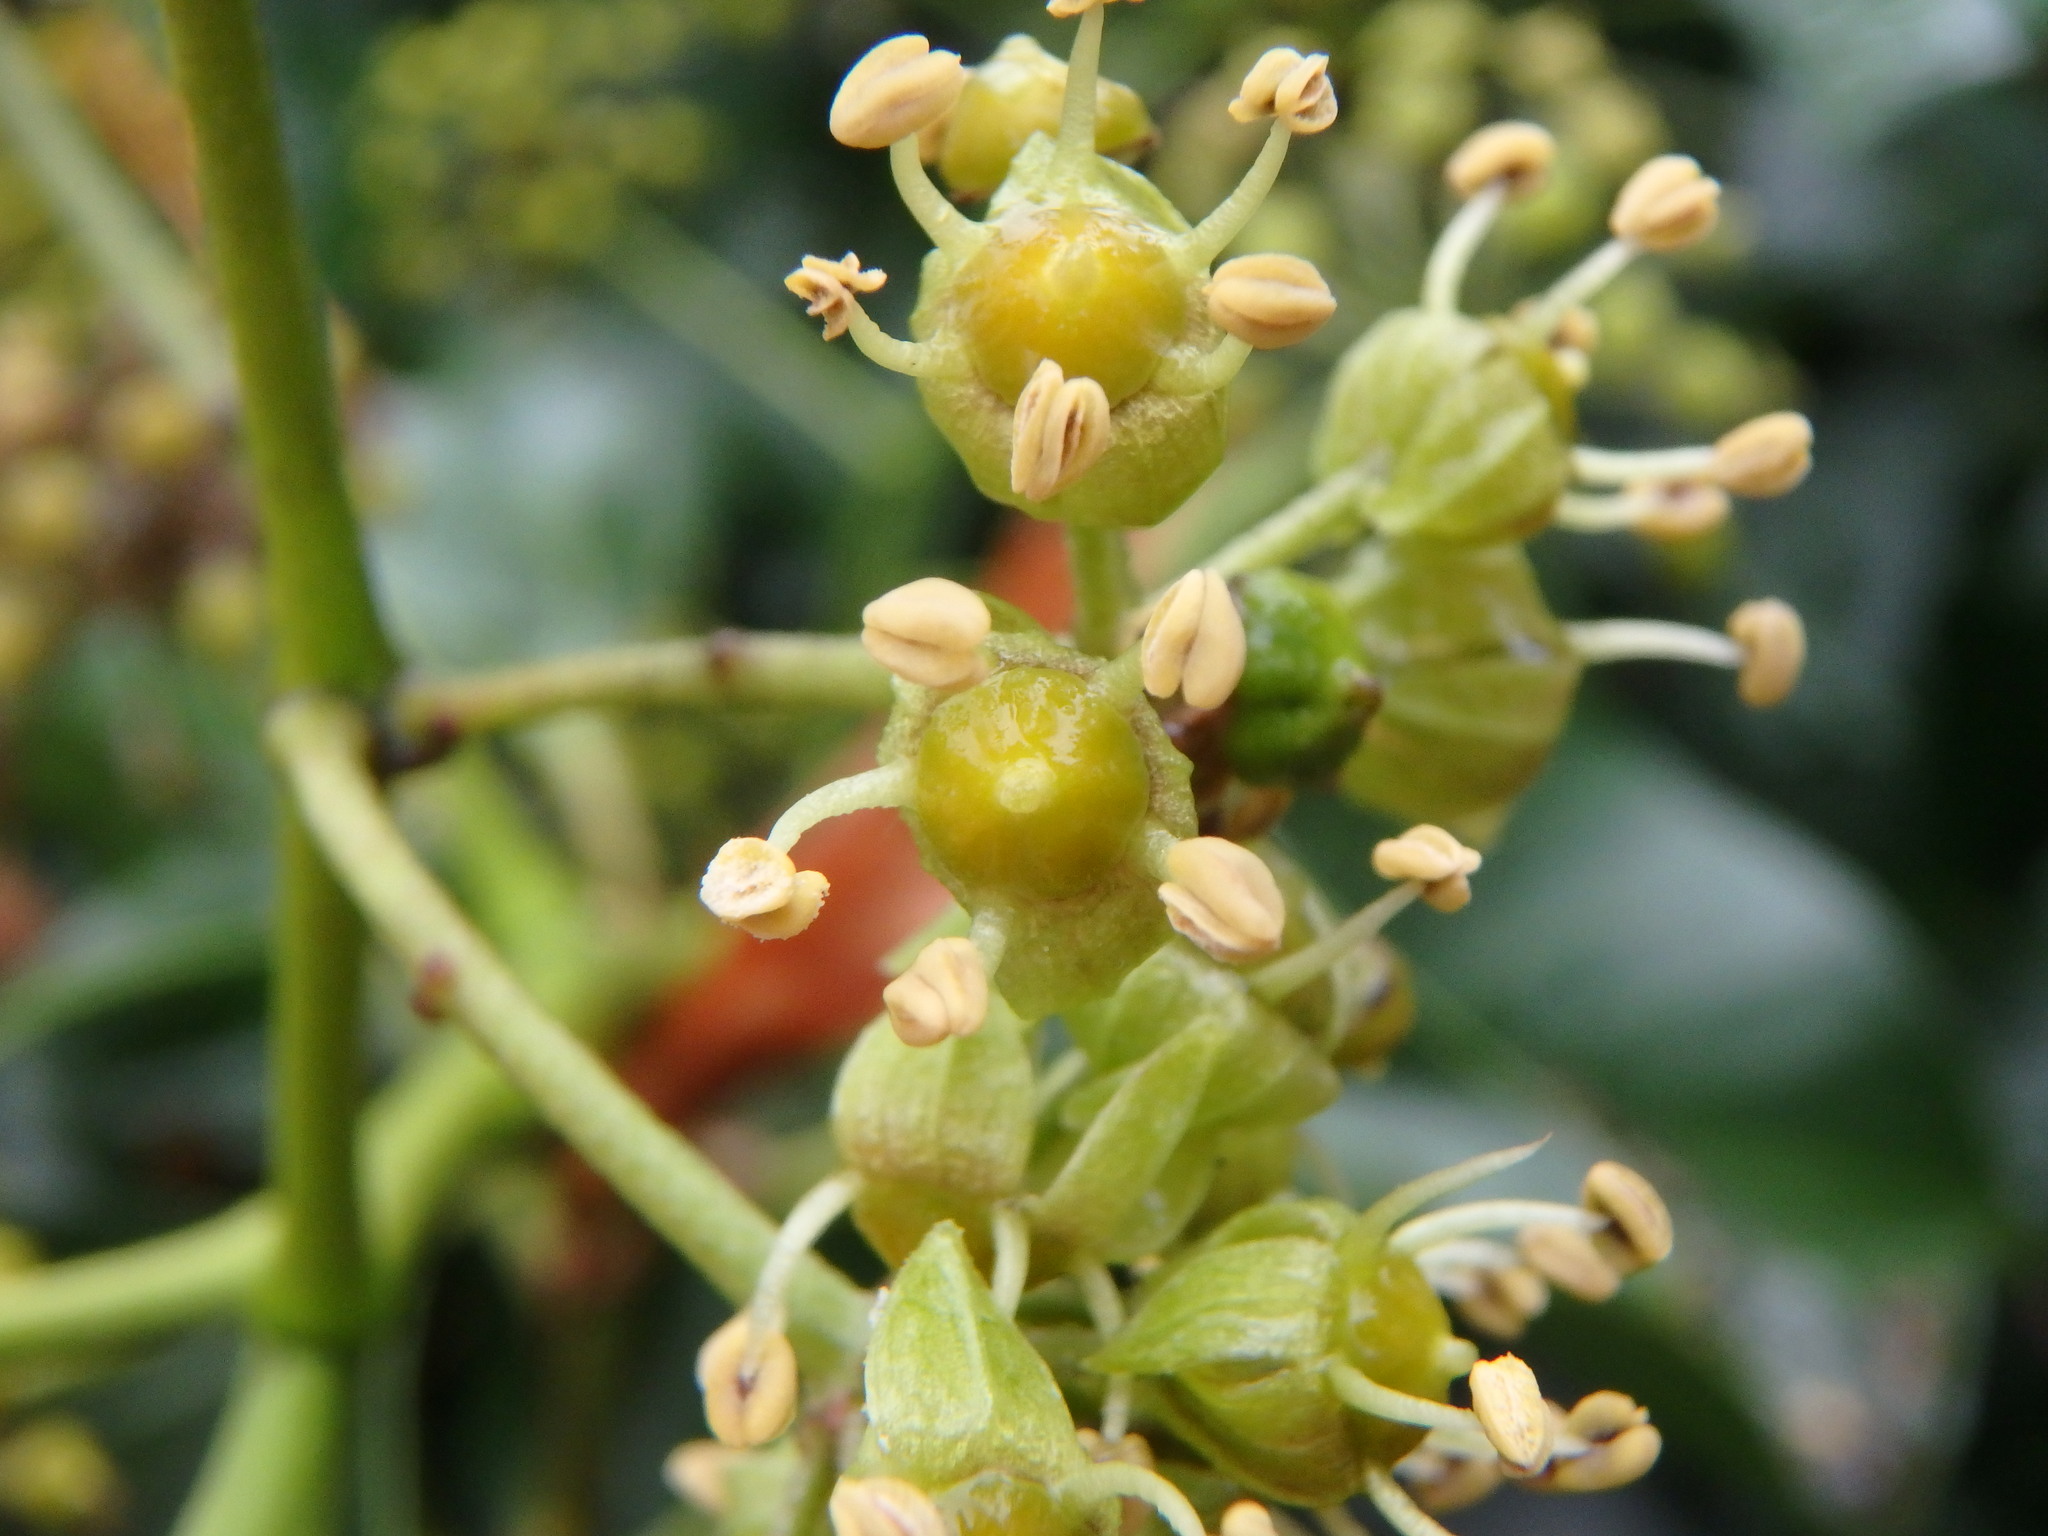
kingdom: Plantae
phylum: Tracheophyta
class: Magnoliopsida
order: Apiales
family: Araliaceae
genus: Hedera
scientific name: Hedera helix
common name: Ivy
